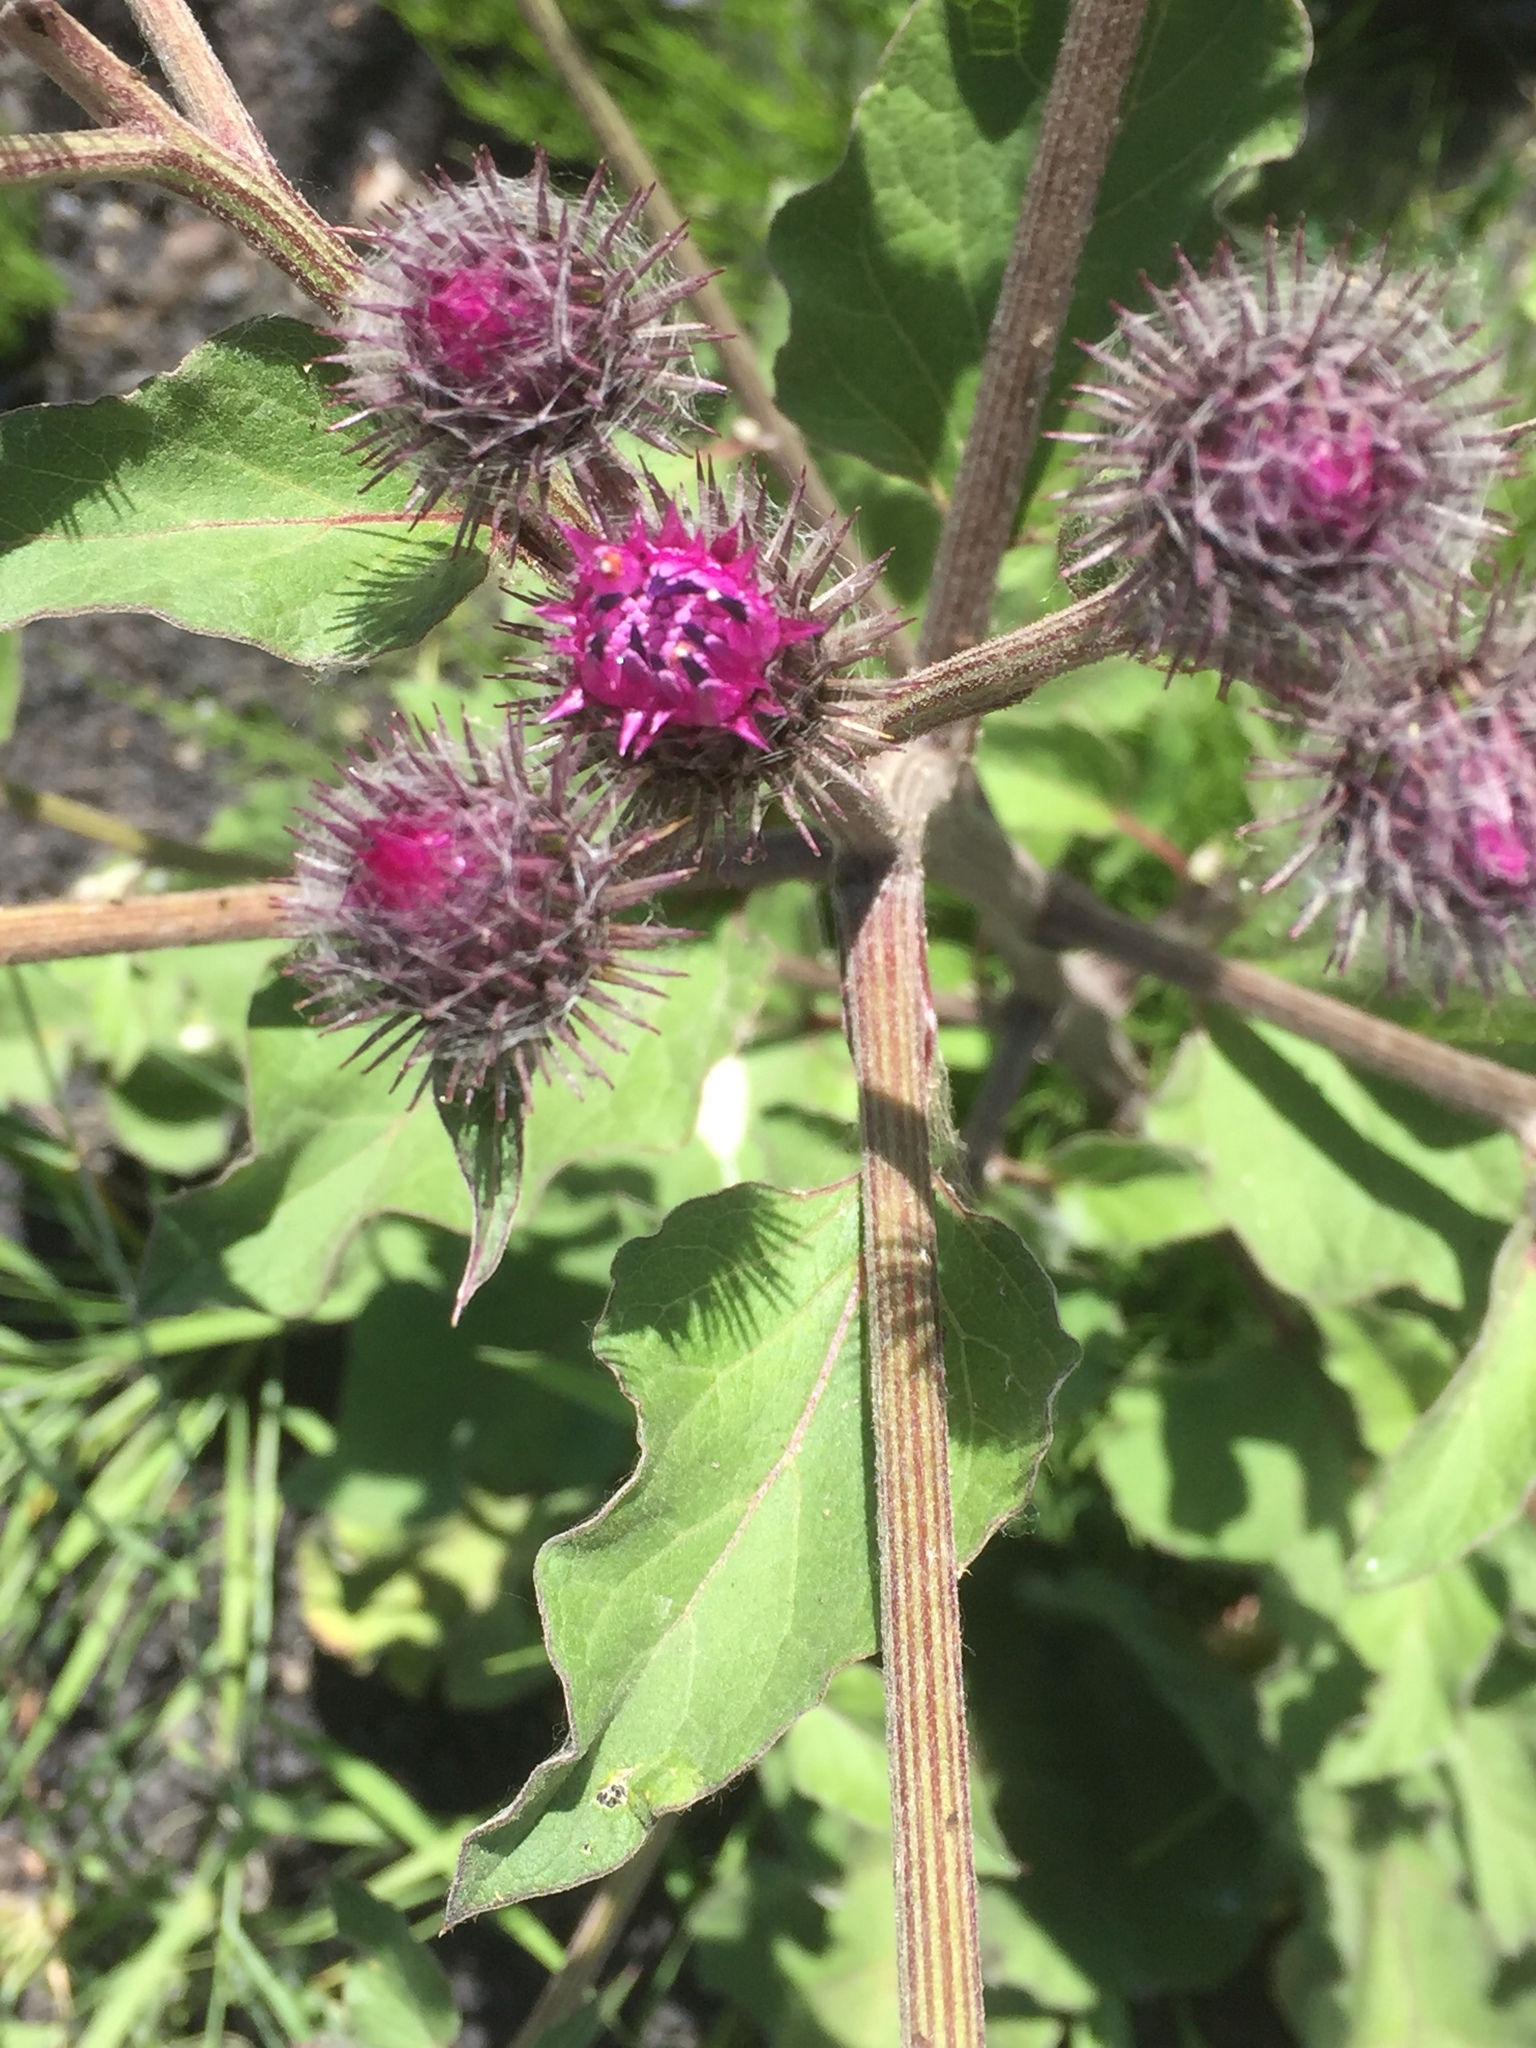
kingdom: Plantae
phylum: Tracheophyta
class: Magnoliopsida
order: Asterales
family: Asteraceae
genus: Arctium
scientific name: Arctium tomentosum
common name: Woolly burdock
